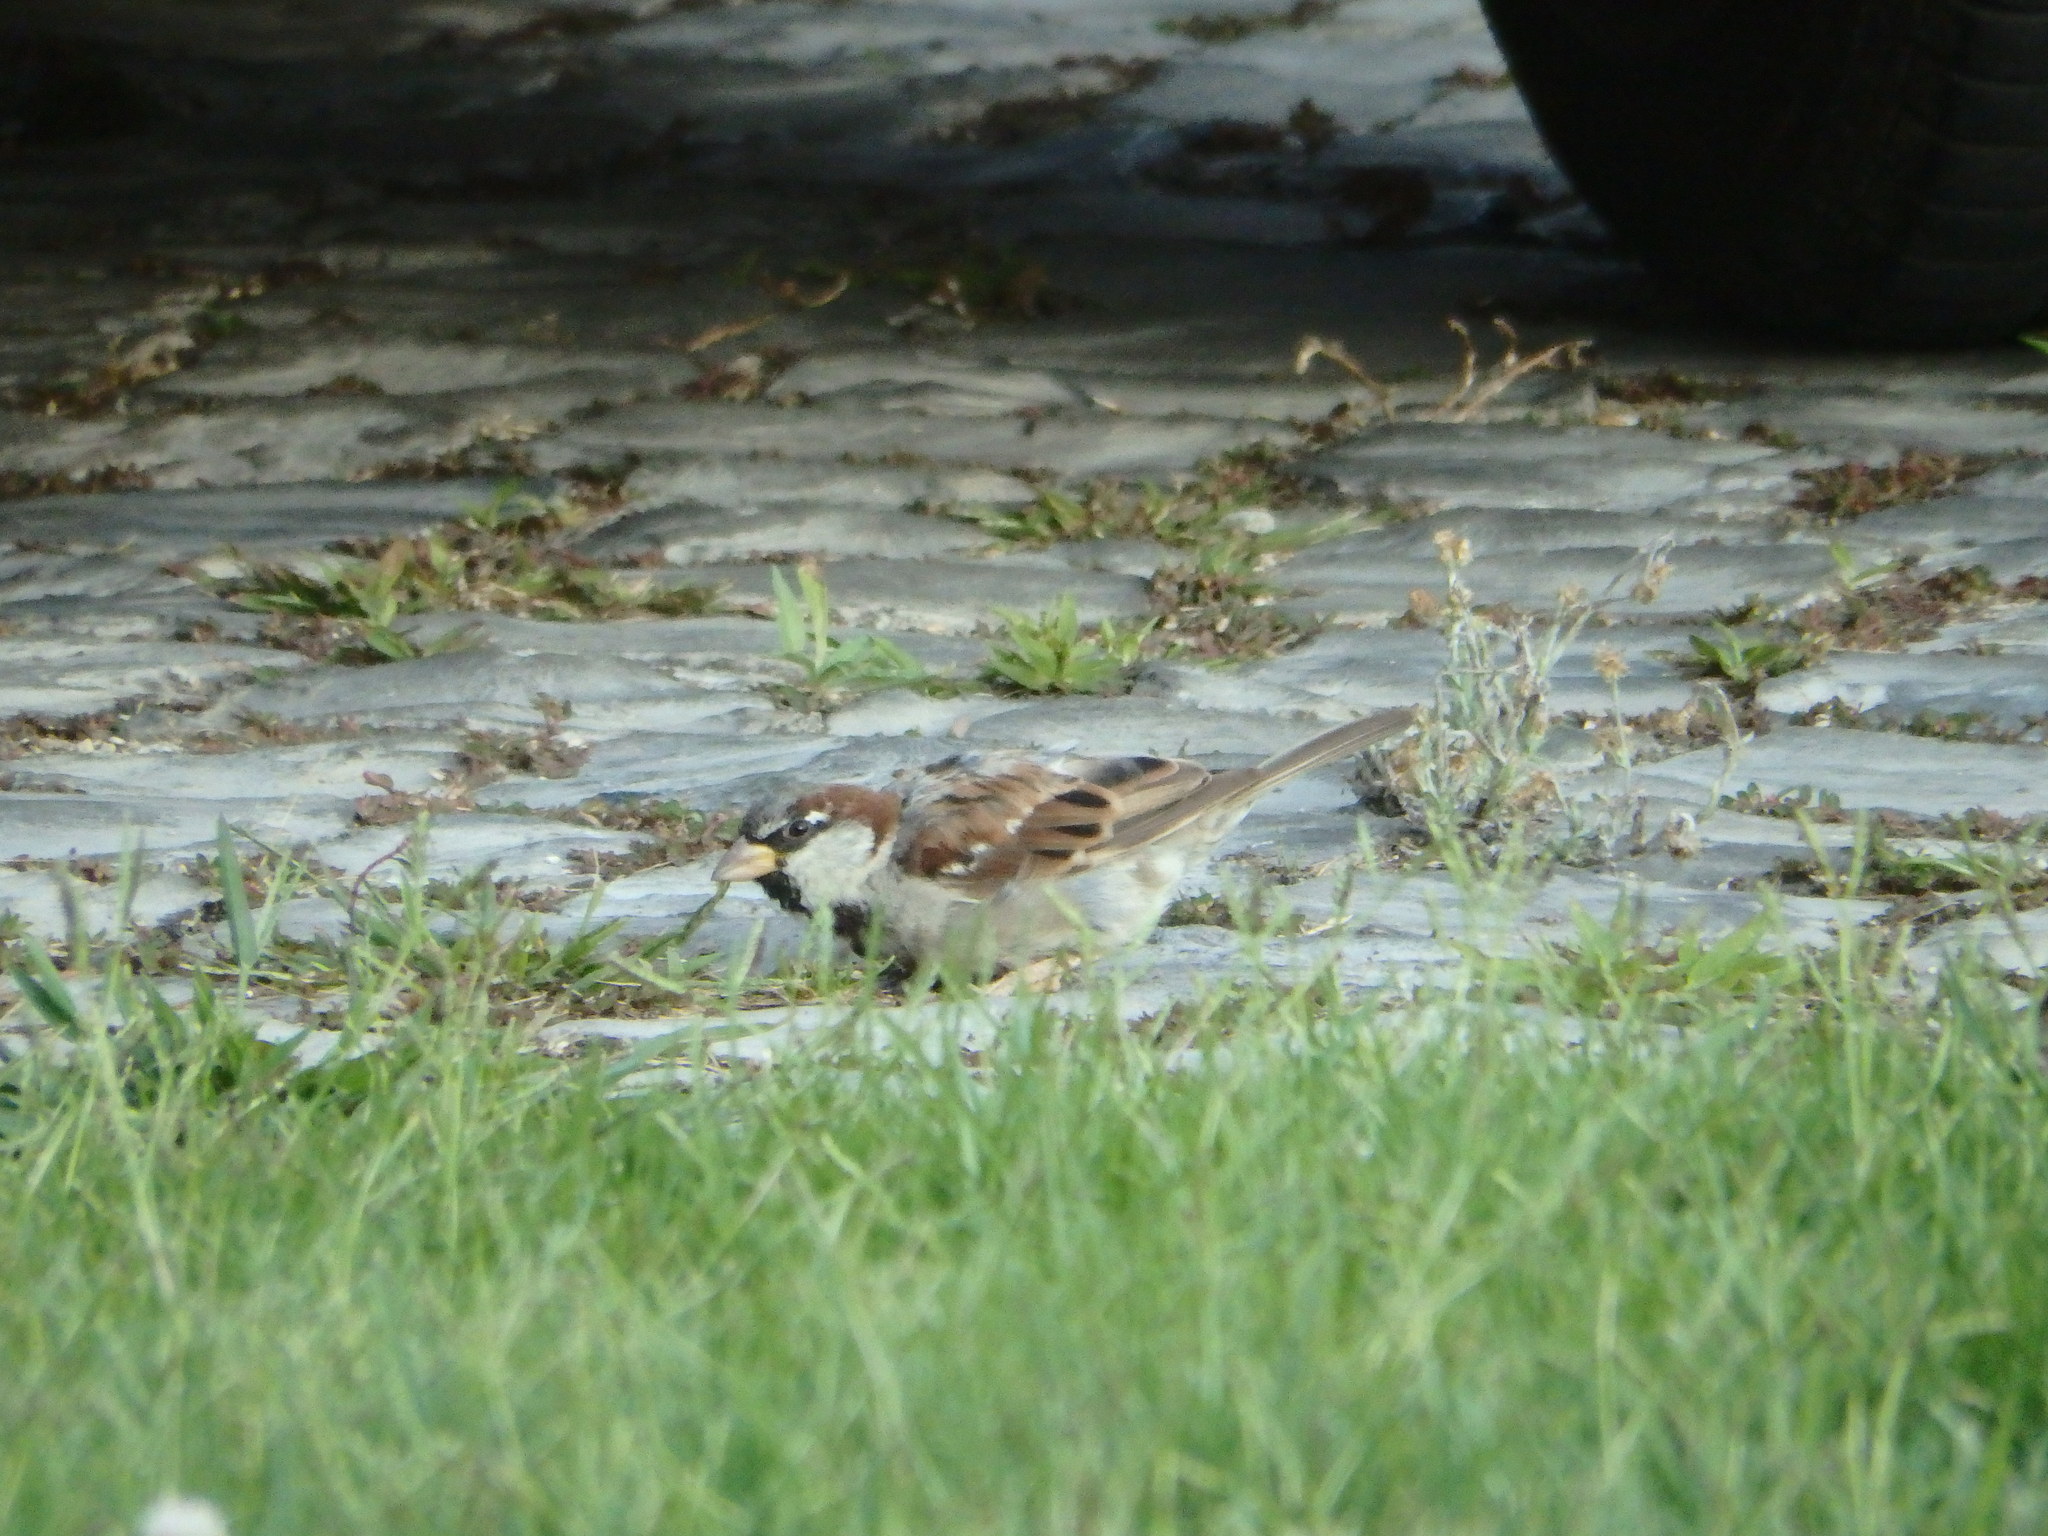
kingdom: Animalia
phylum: Chordata
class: Aves
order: Passeriformes
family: Passeridae
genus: Passer
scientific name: Passer domesticus
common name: House sparrow
